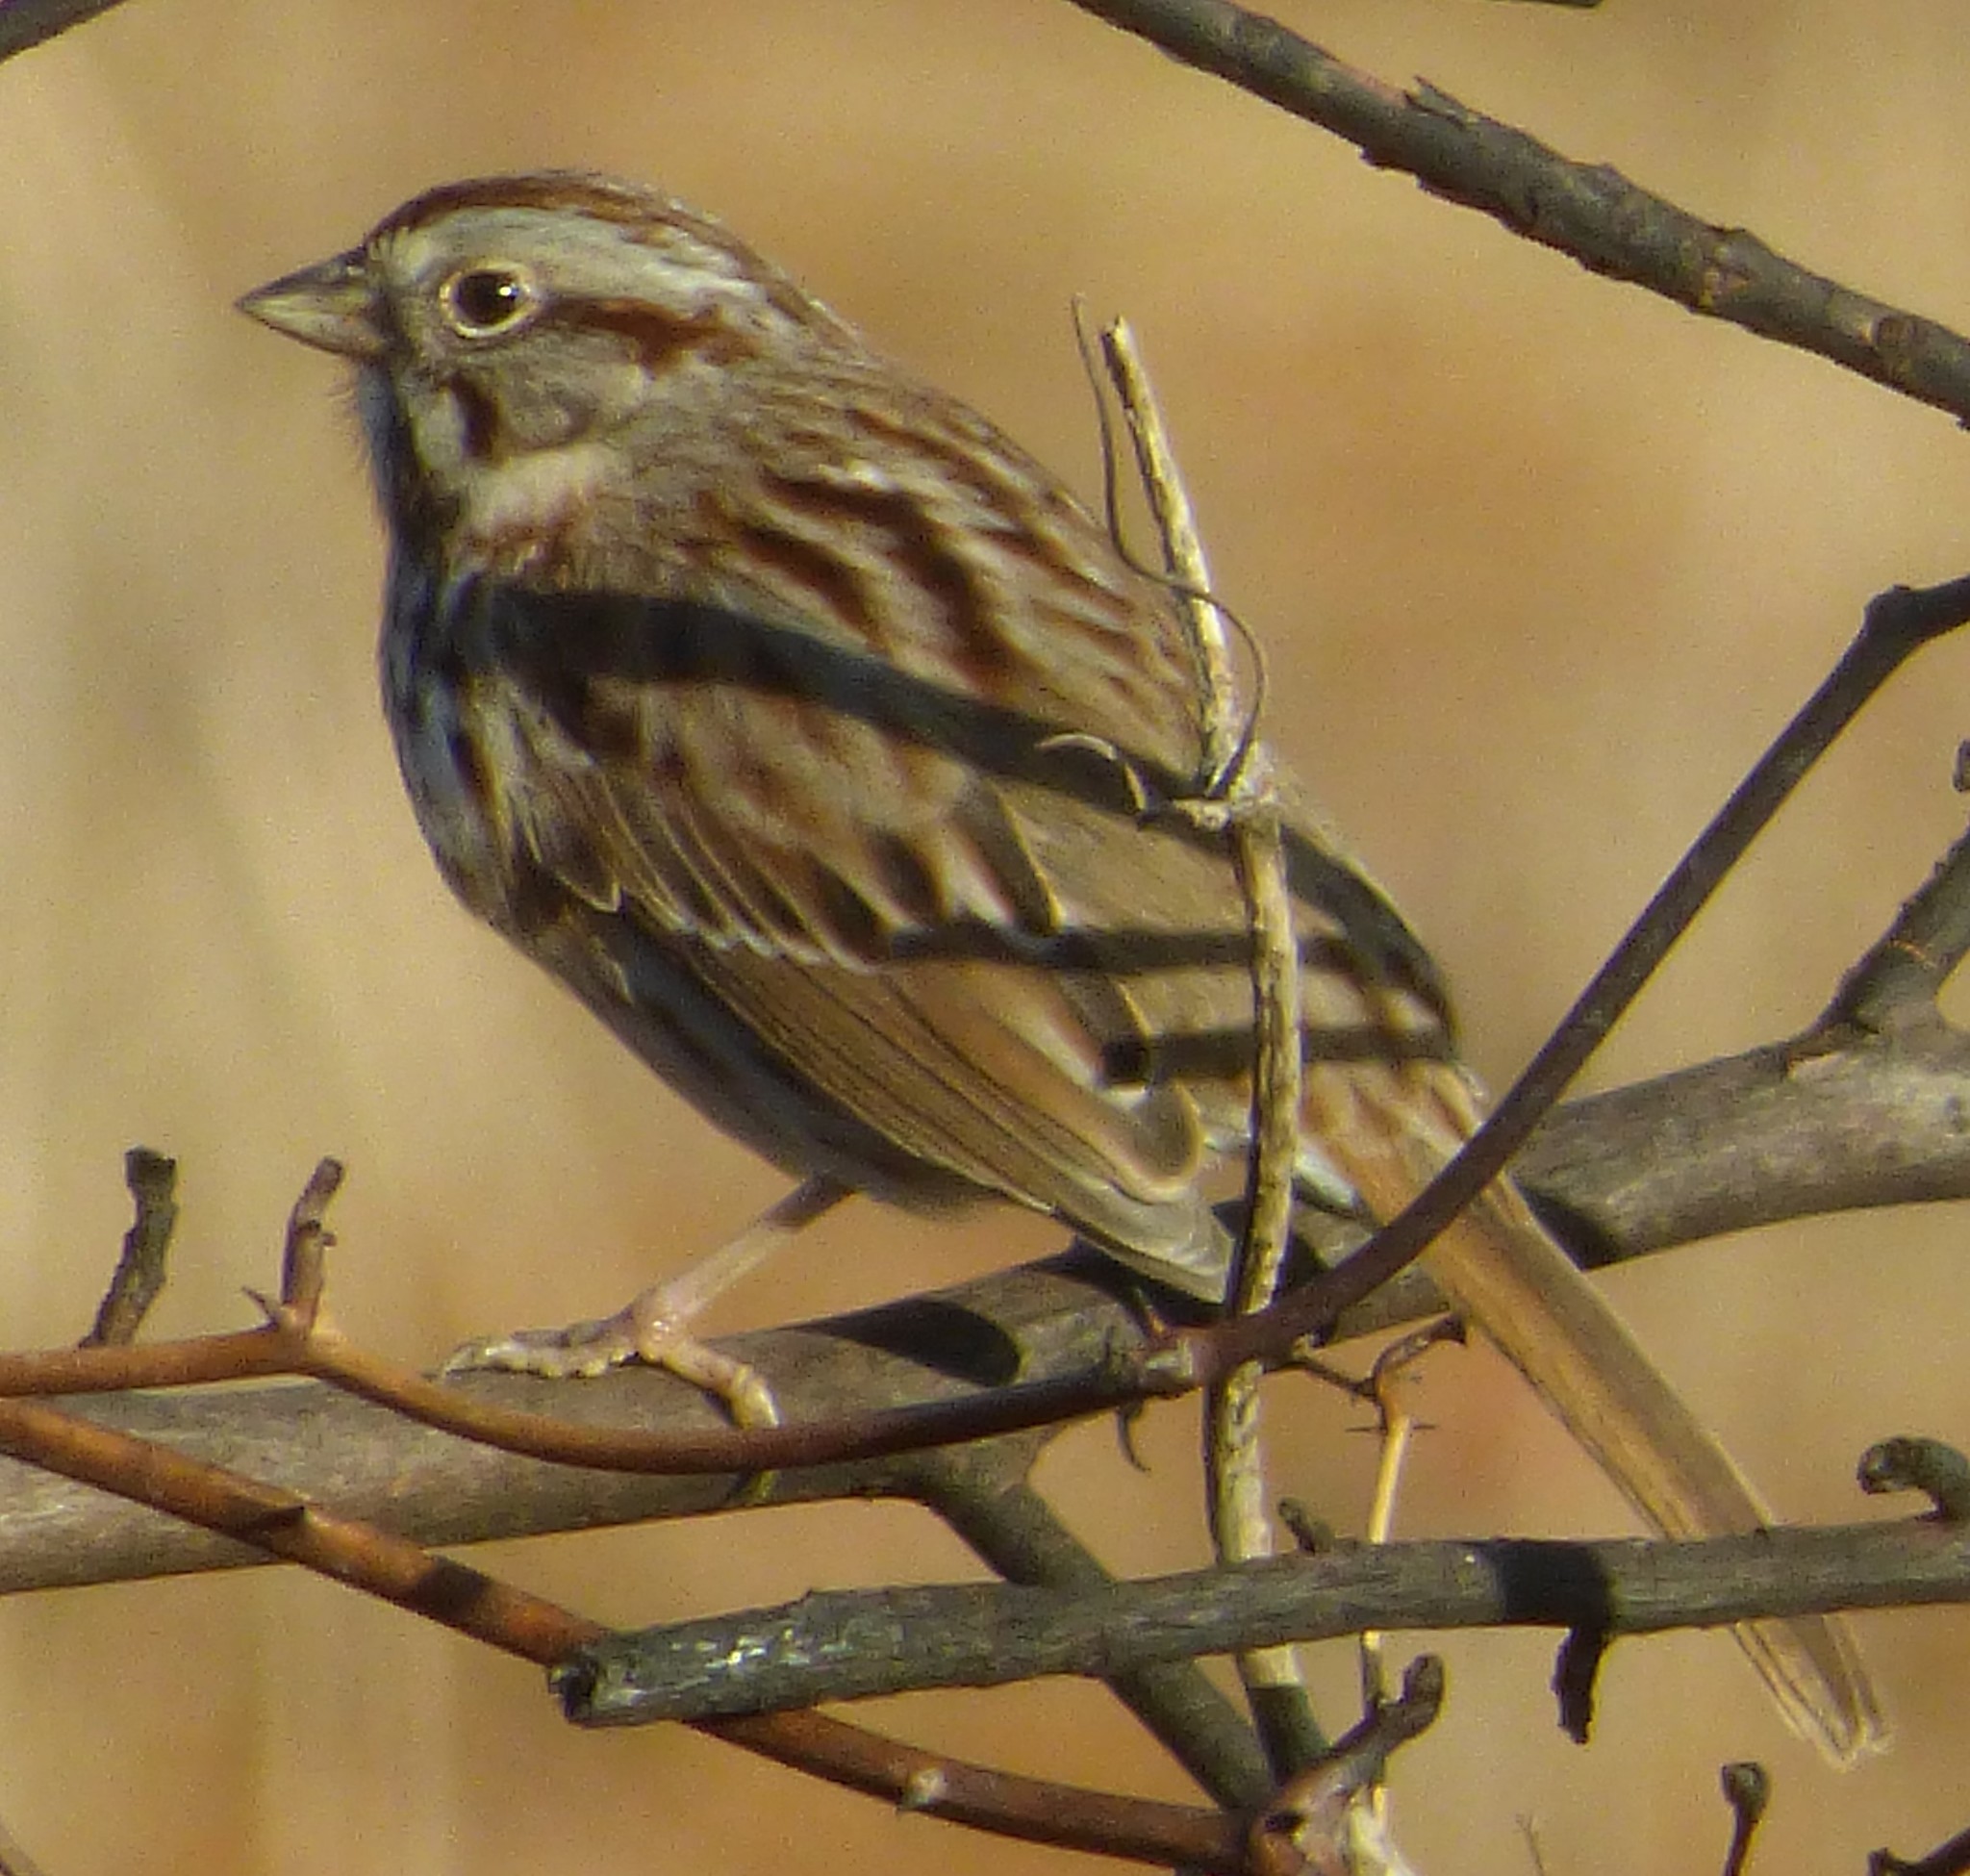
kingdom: Animalia
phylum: Chordata
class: Aves
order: Passeriformes
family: Passerellidae
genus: Melospiza
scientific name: Melospiza melodia
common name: Song sparrow
